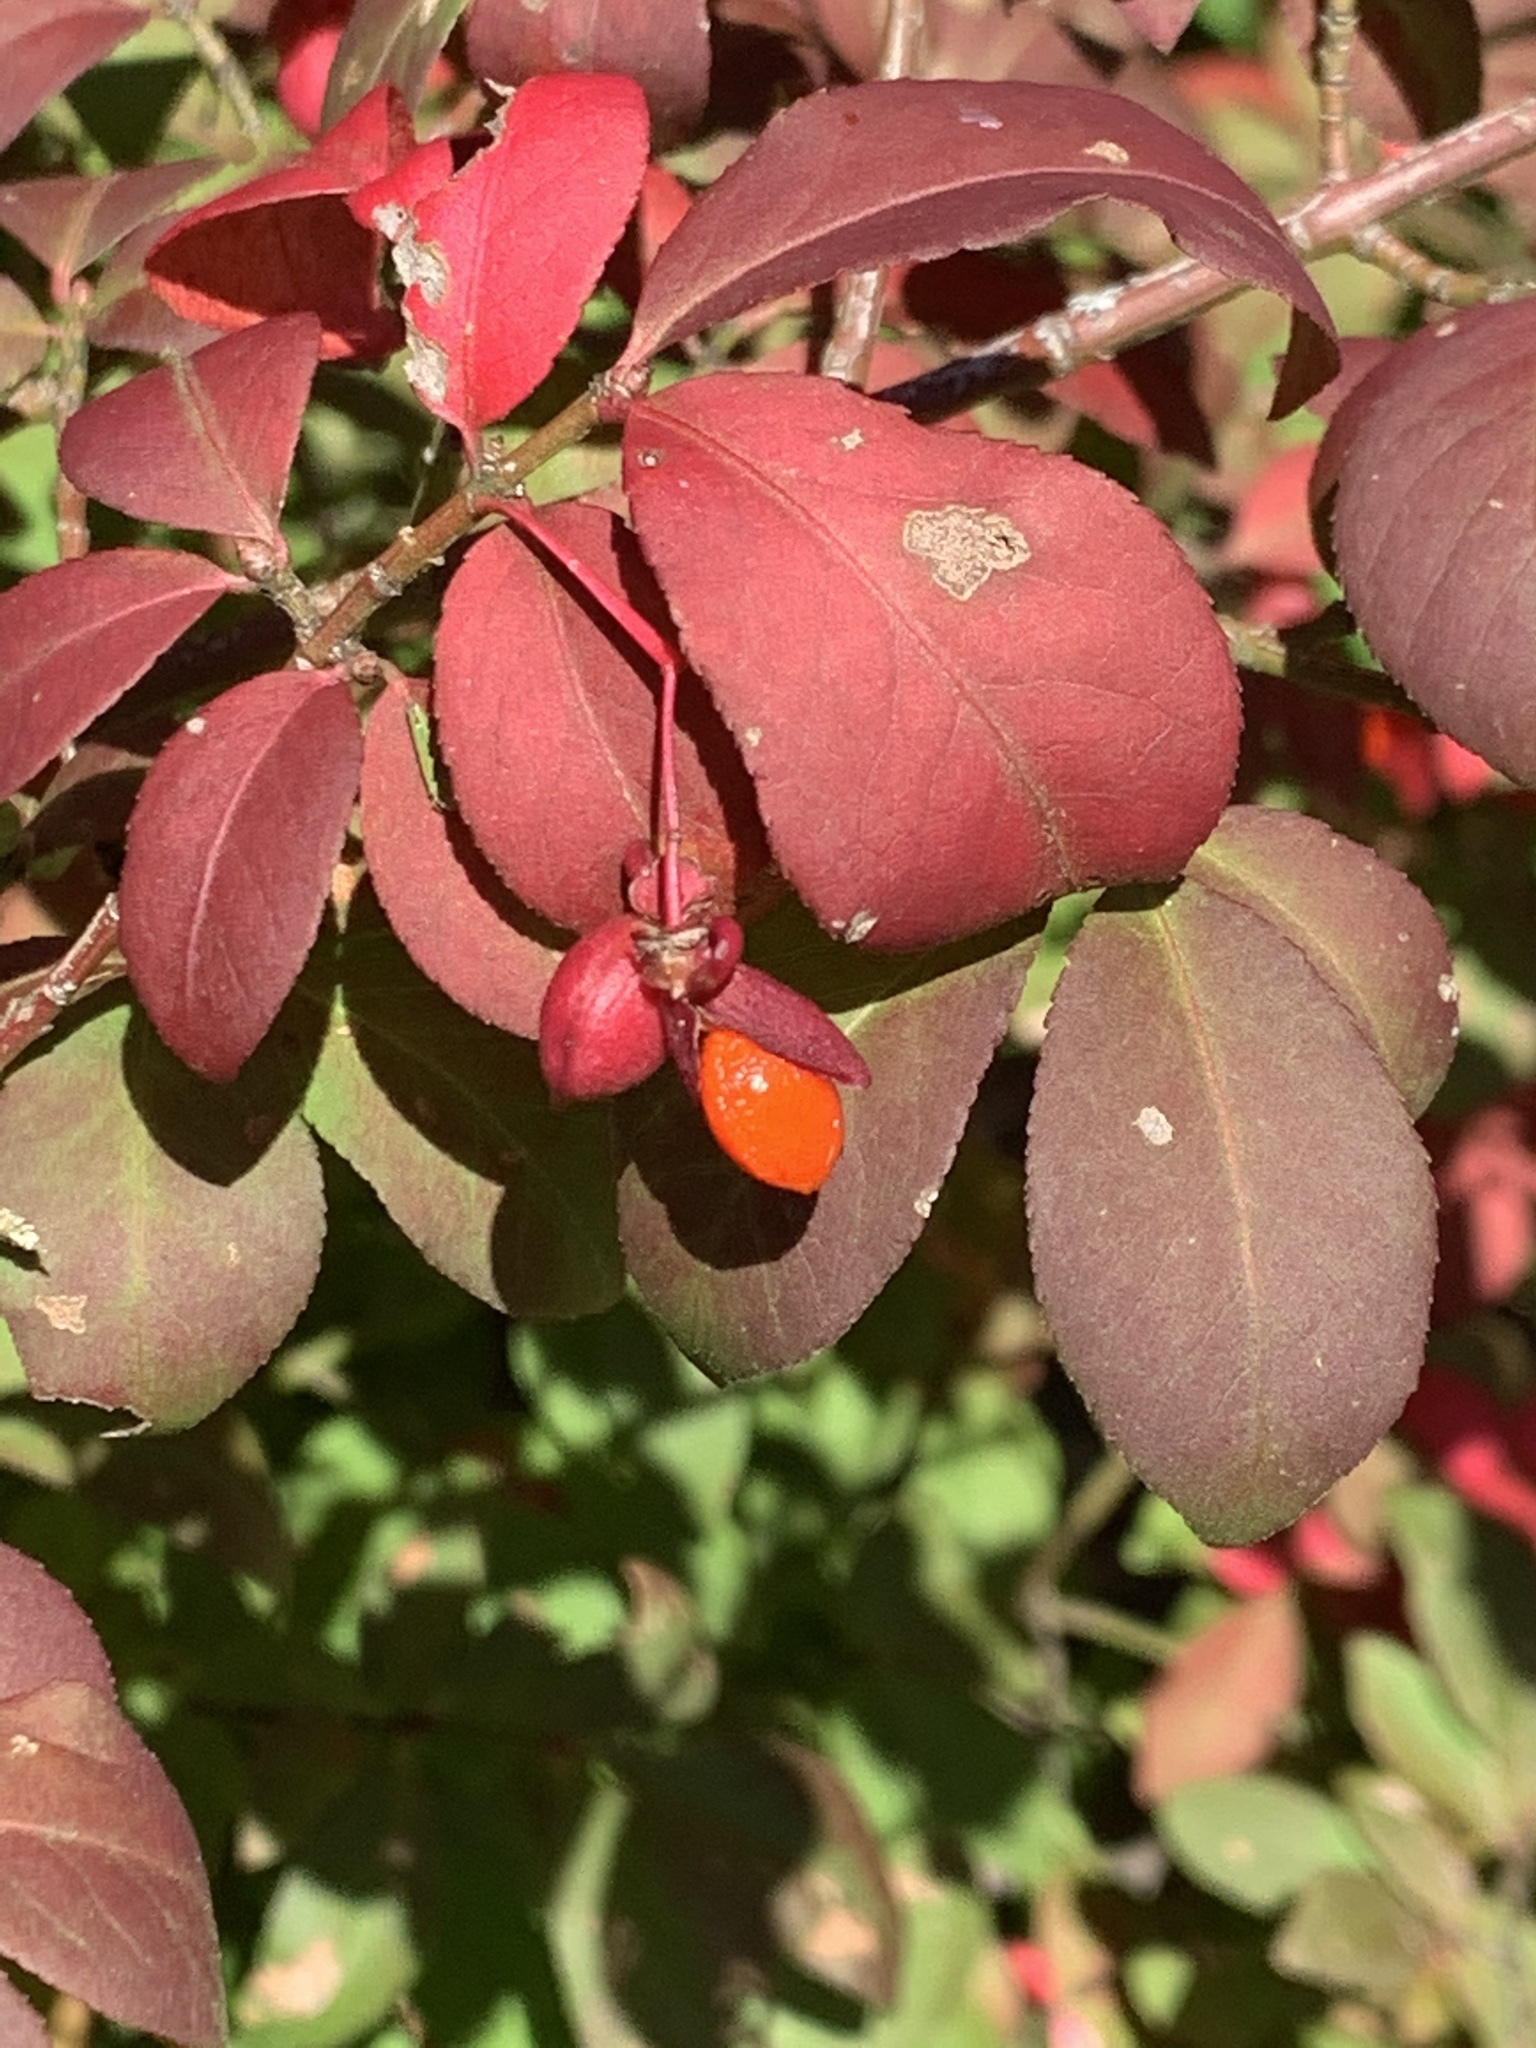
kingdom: Plantae
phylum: Tracheophyta
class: Magnoliopsida
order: Celastrales
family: Celastraceae
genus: Euonymus
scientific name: Euonymus alatus
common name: Winged euonymus
